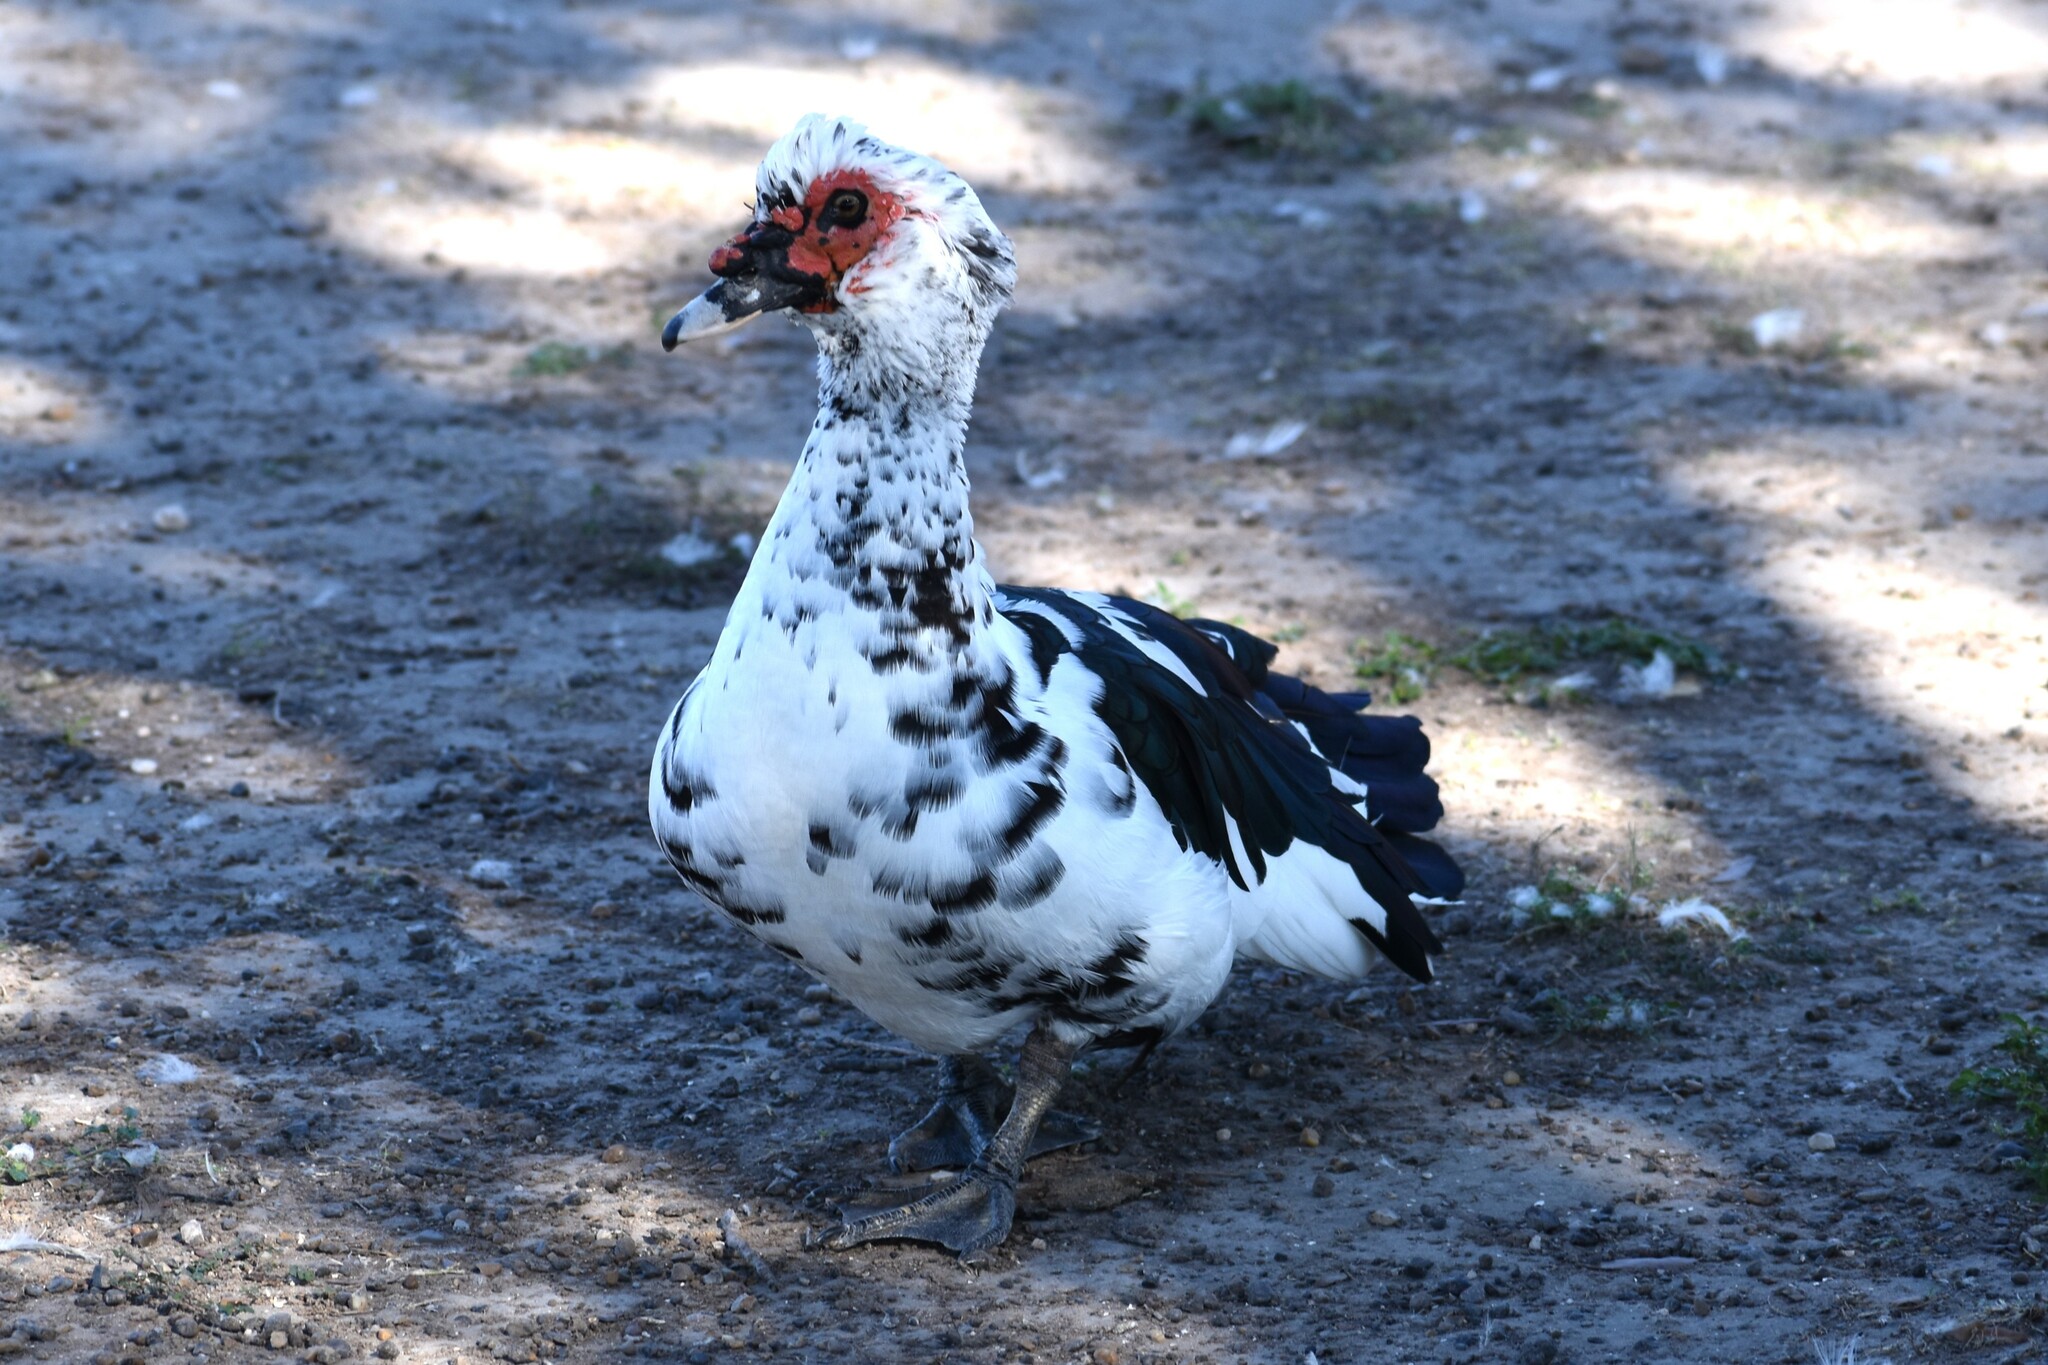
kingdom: Animalia
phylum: Chordata
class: Aves
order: Anseriformes
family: Anatidae
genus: Cairina
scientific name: Cairina moschata
